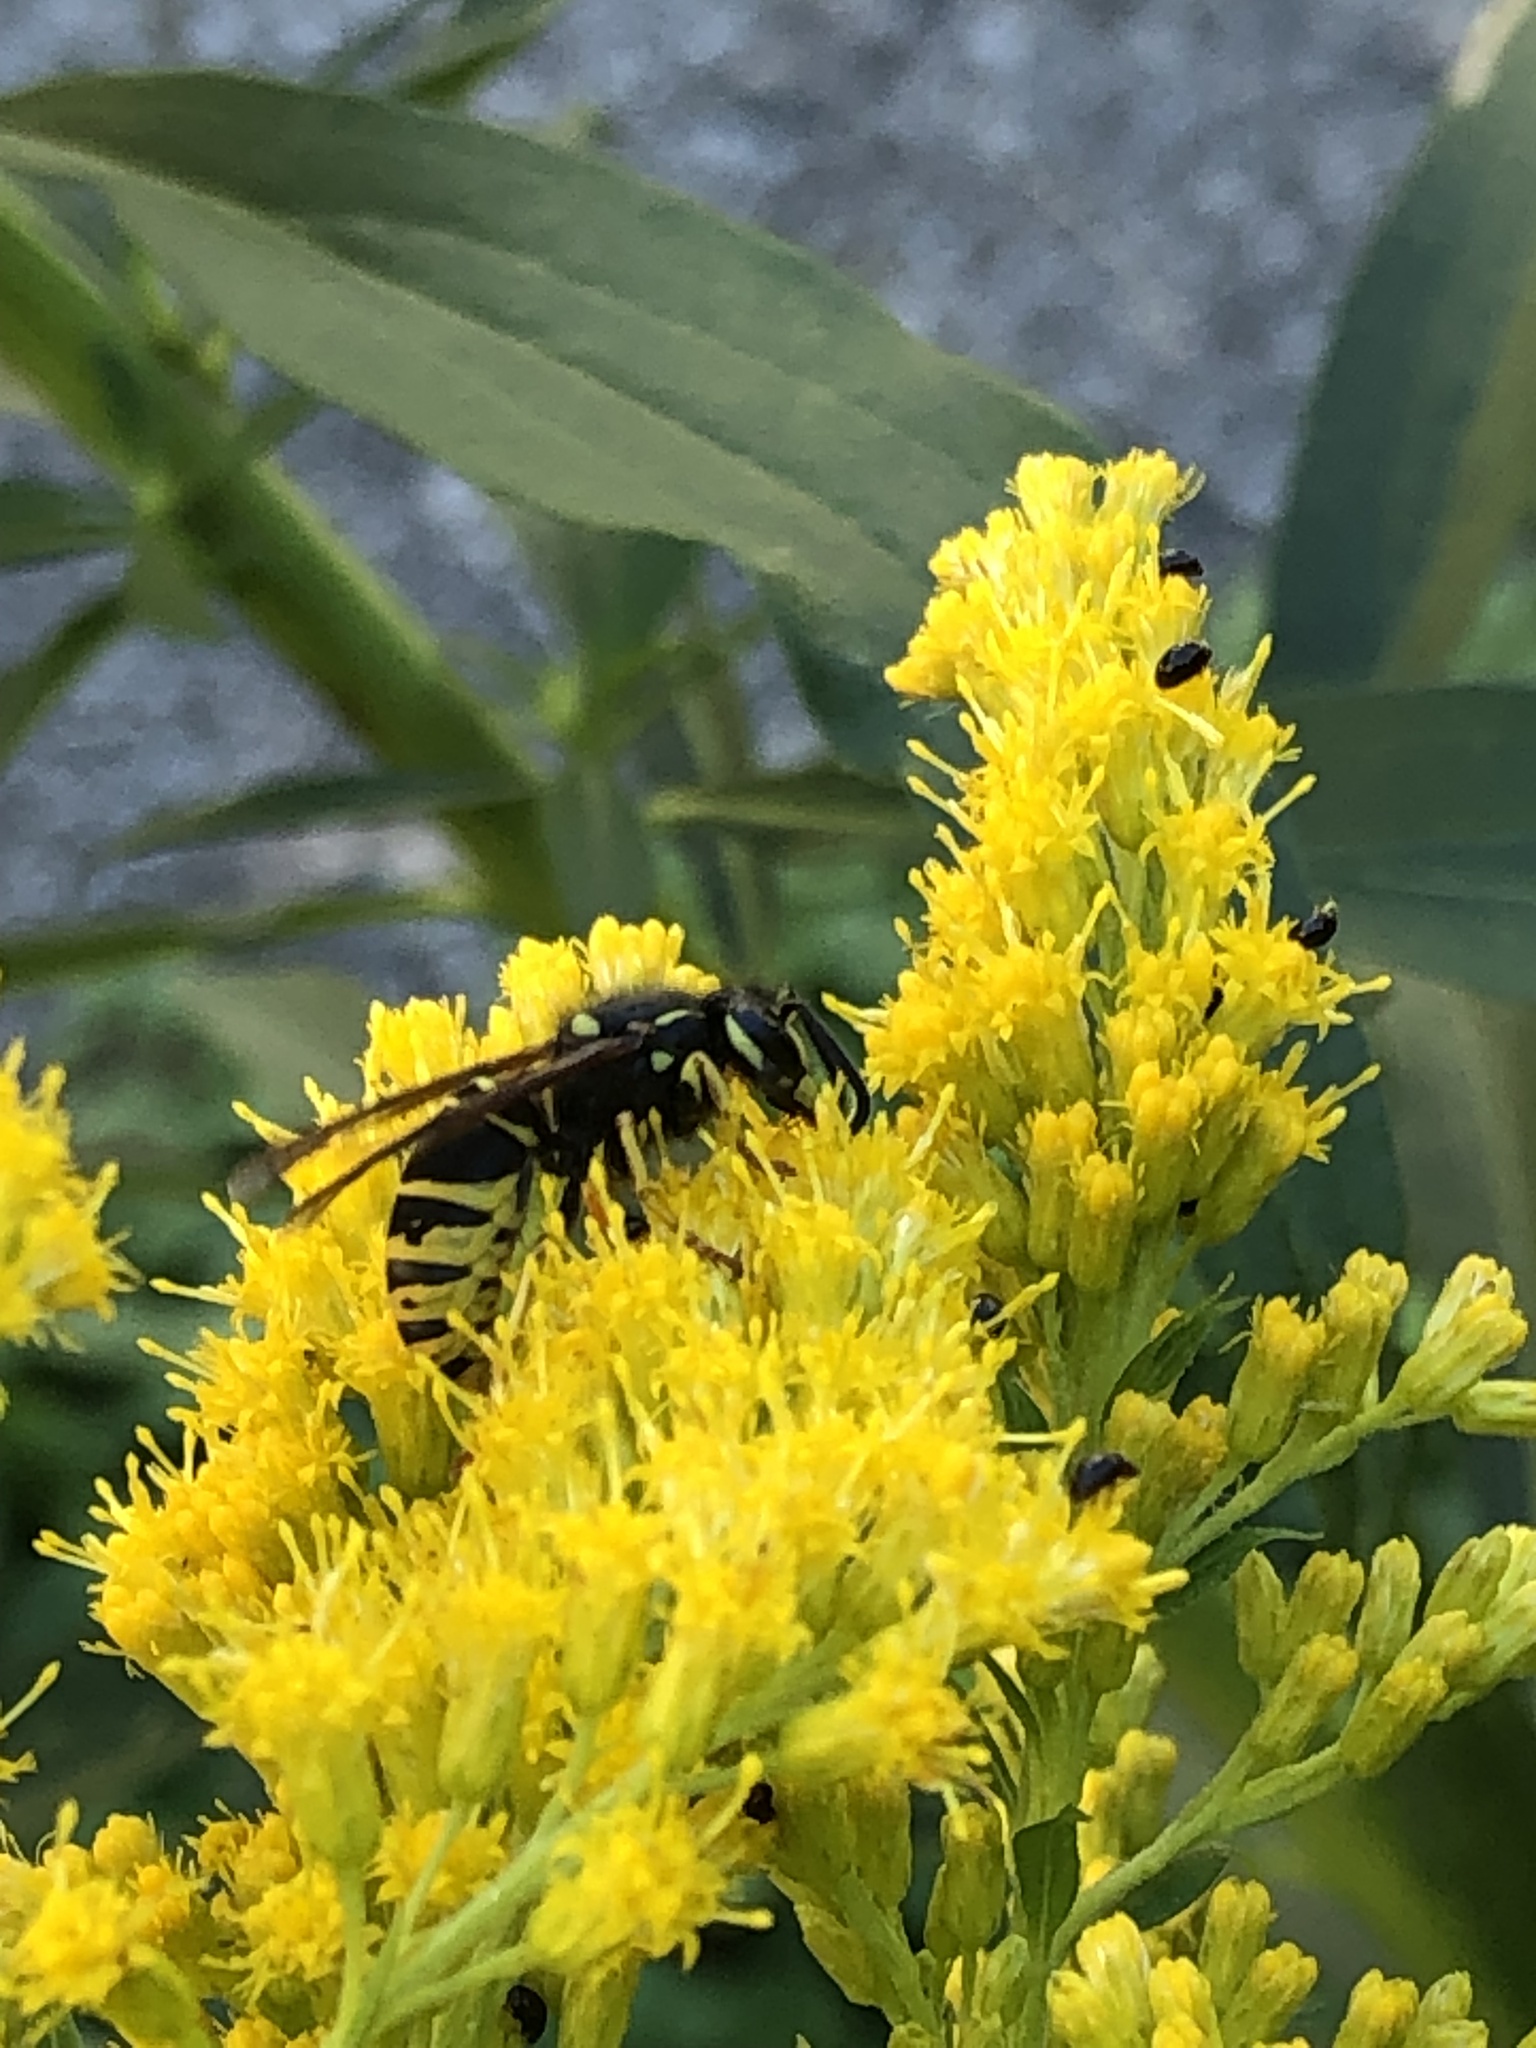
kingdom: Animalia
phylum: Arthropoda
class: Insecta
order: Hymenoptera
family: Vespidae
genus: Vespula
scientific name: Vespula vidua
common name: Widow yellowjacket
